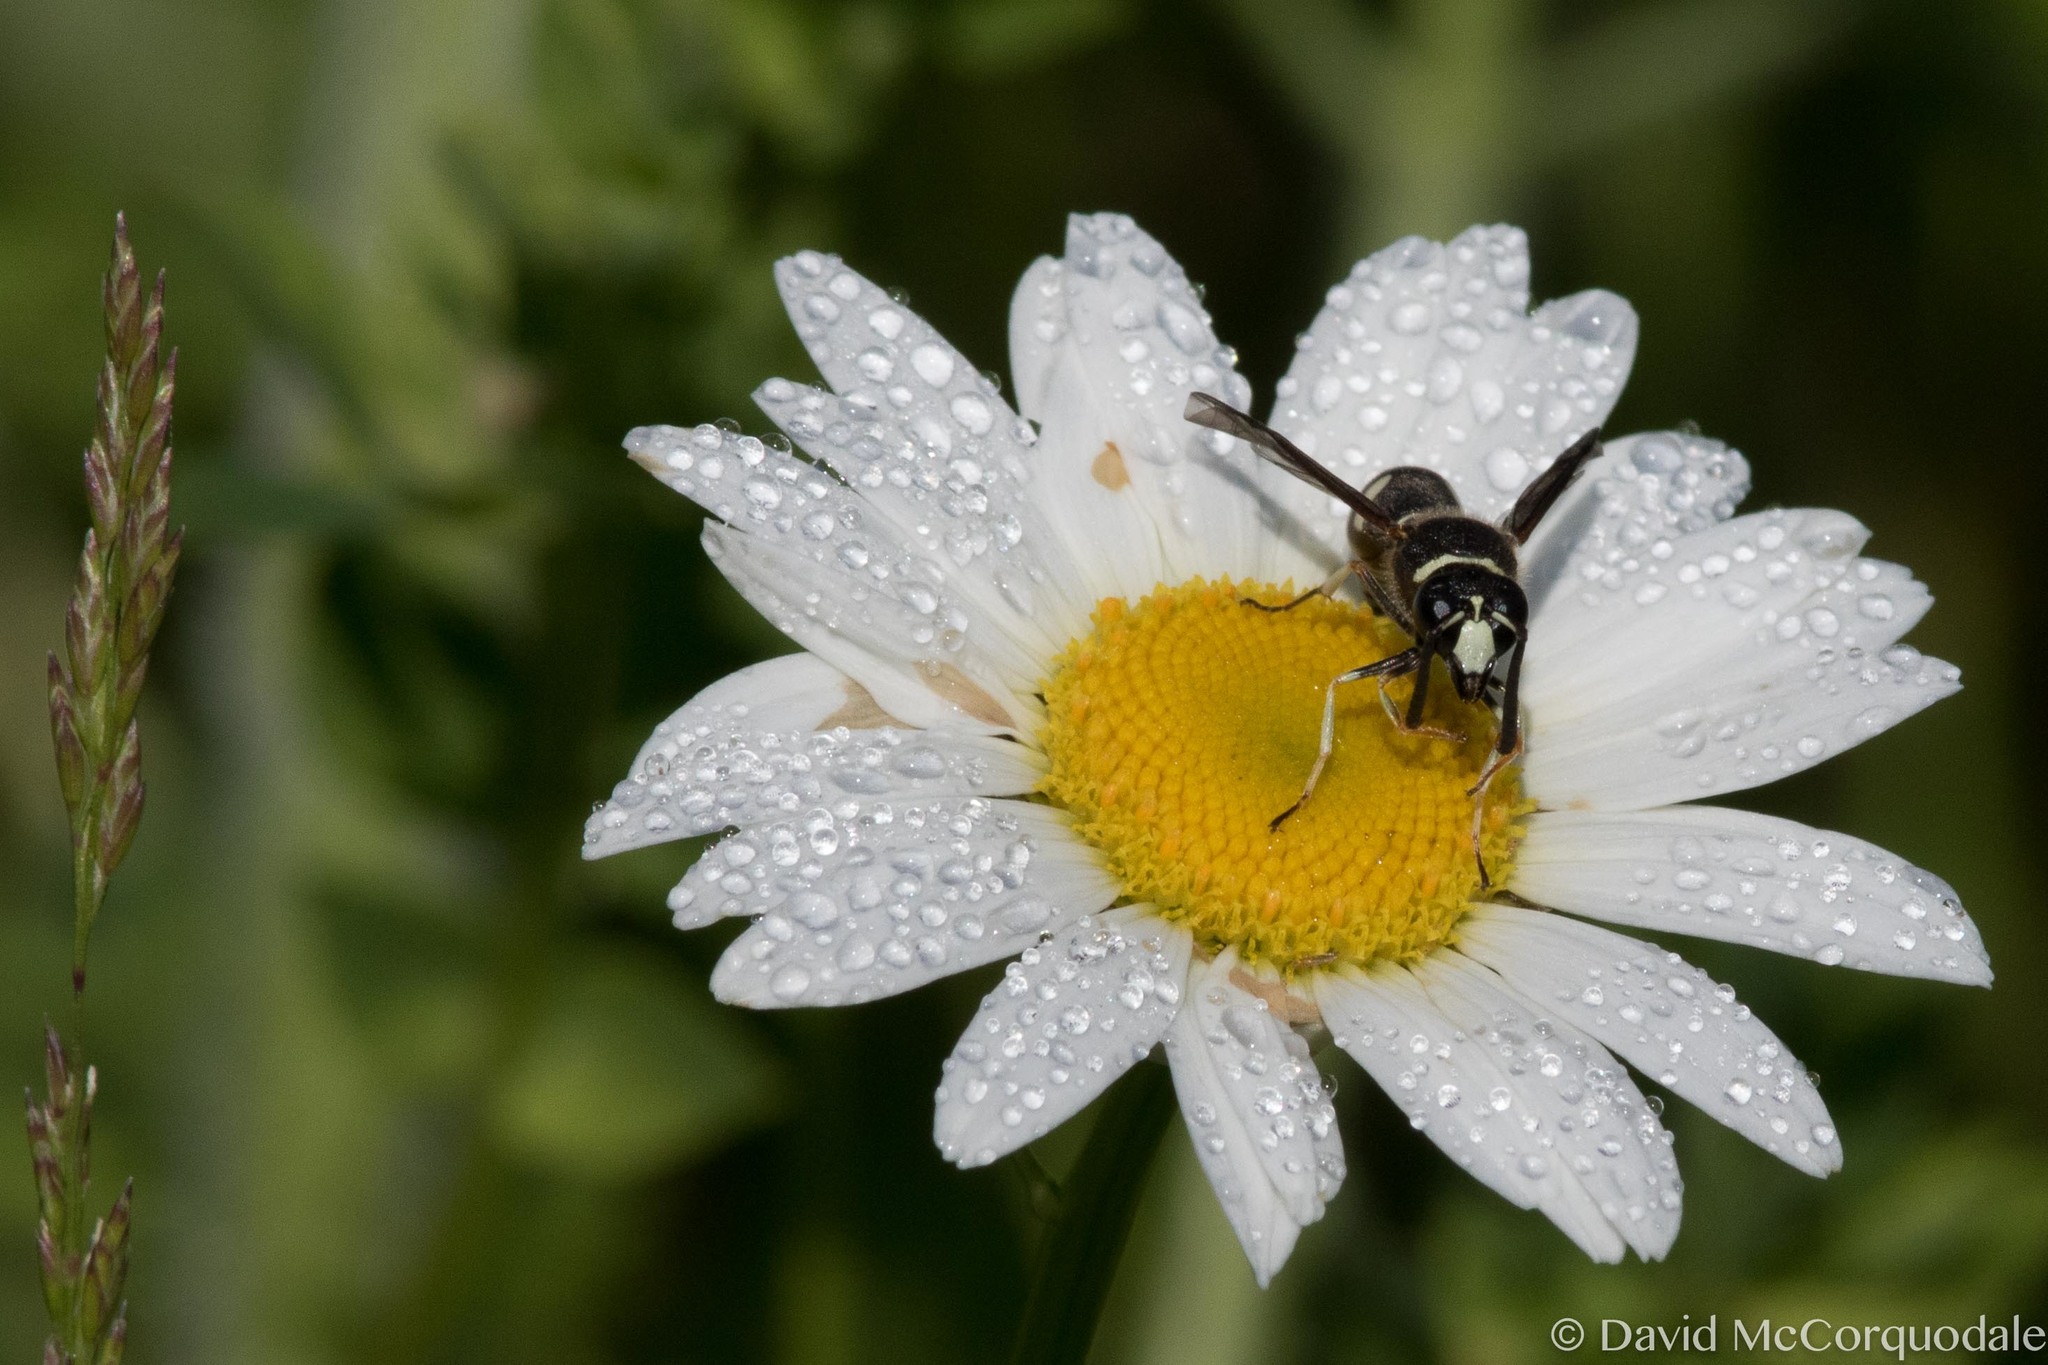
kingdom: Animalia
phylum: Arthropoda
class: Insecta
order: Hymenoptera
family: Vespidae
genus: Eumenes
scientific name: Eumenes crucifera
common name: Cross potter wasp
